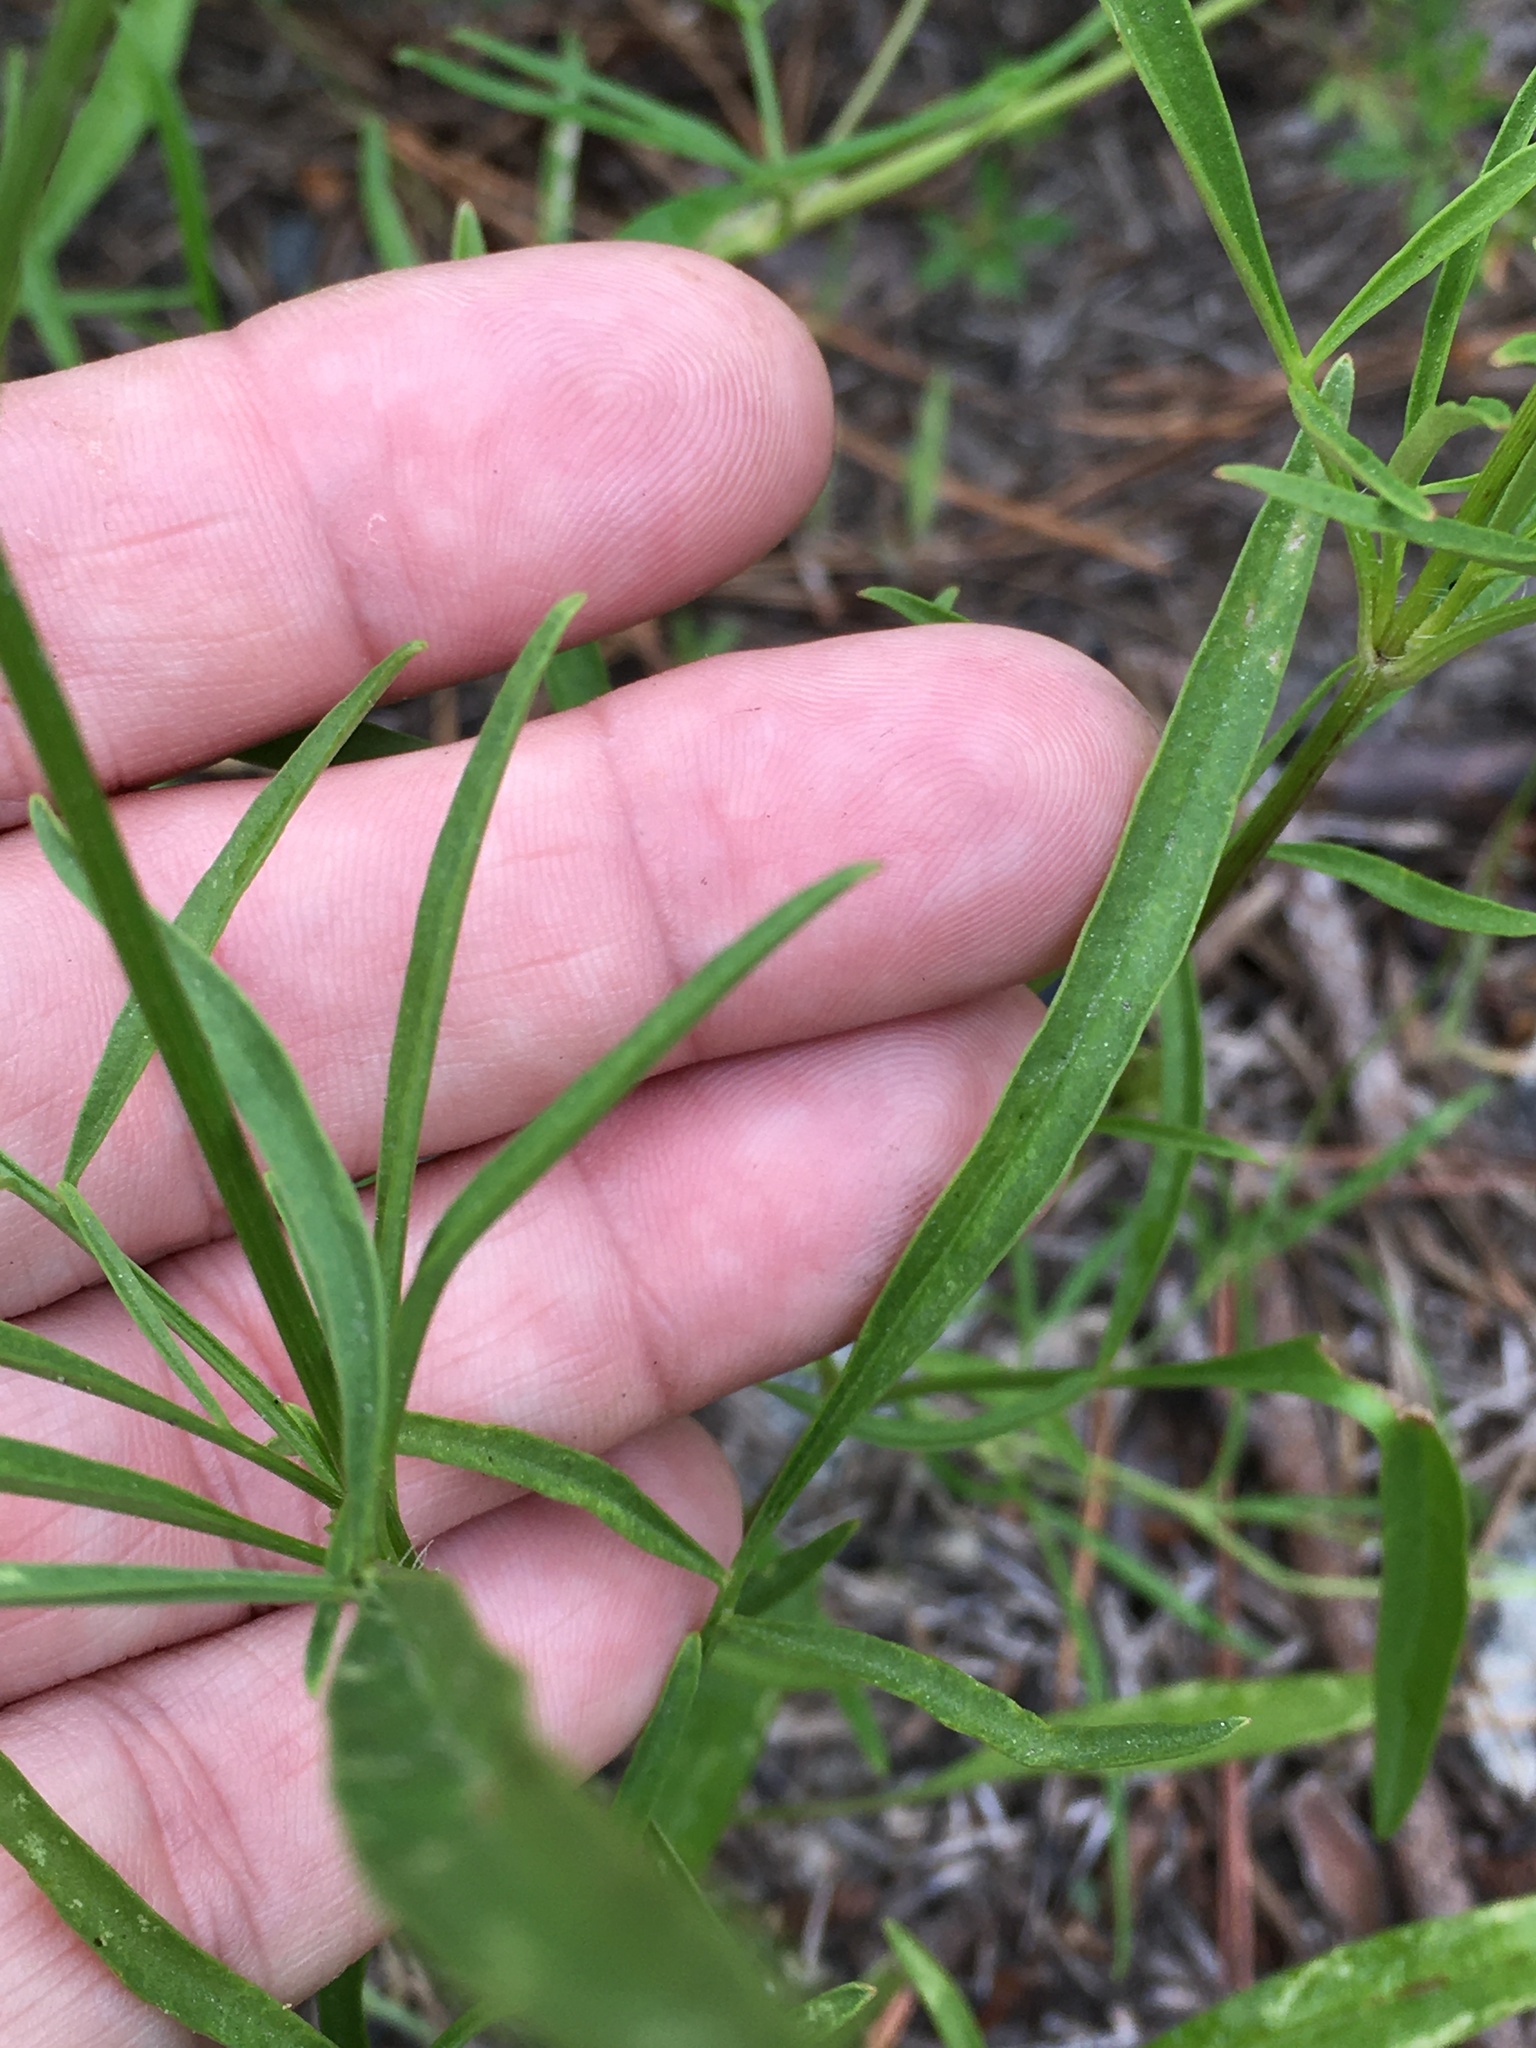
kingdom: Plantae
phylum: Tracheophyta
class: Magnoliopsida
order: Asterales
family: Asteraceae
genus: Coreopsis
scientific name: Coreopsis lanceolata
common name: Garden coreopsis
